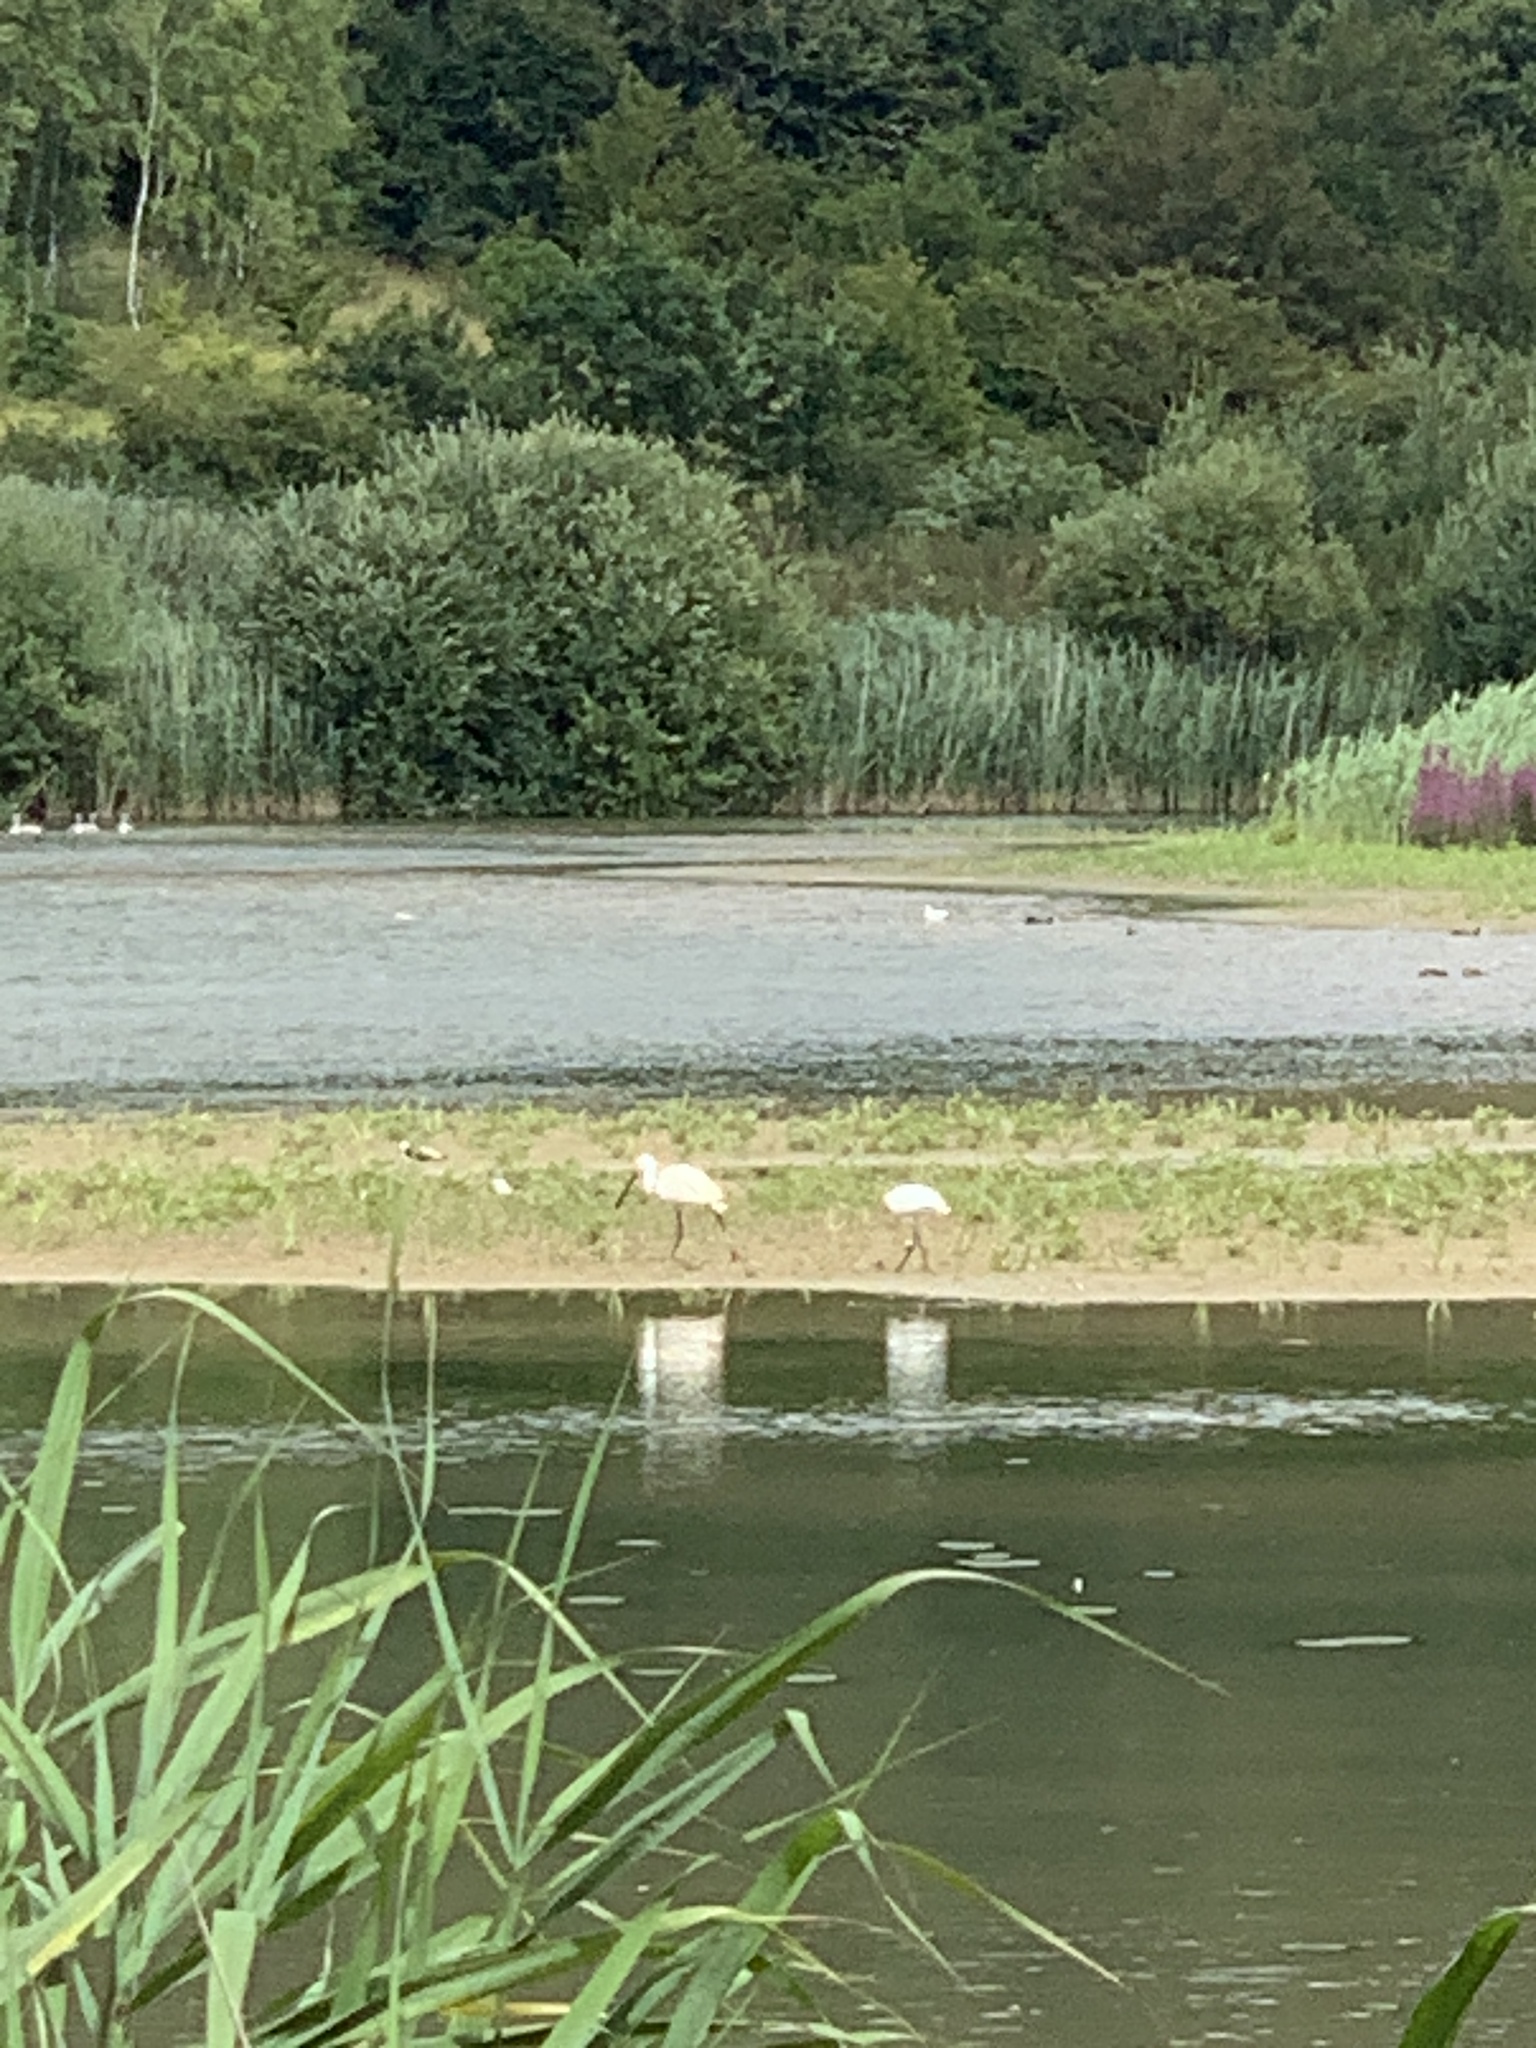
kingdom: Animalia
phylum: Chordata
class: Aves
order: Pelecaniformes
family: Threskiornithidae
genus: Platalea
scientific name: Platalea leucorodia
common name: Eurasian spoonbill
